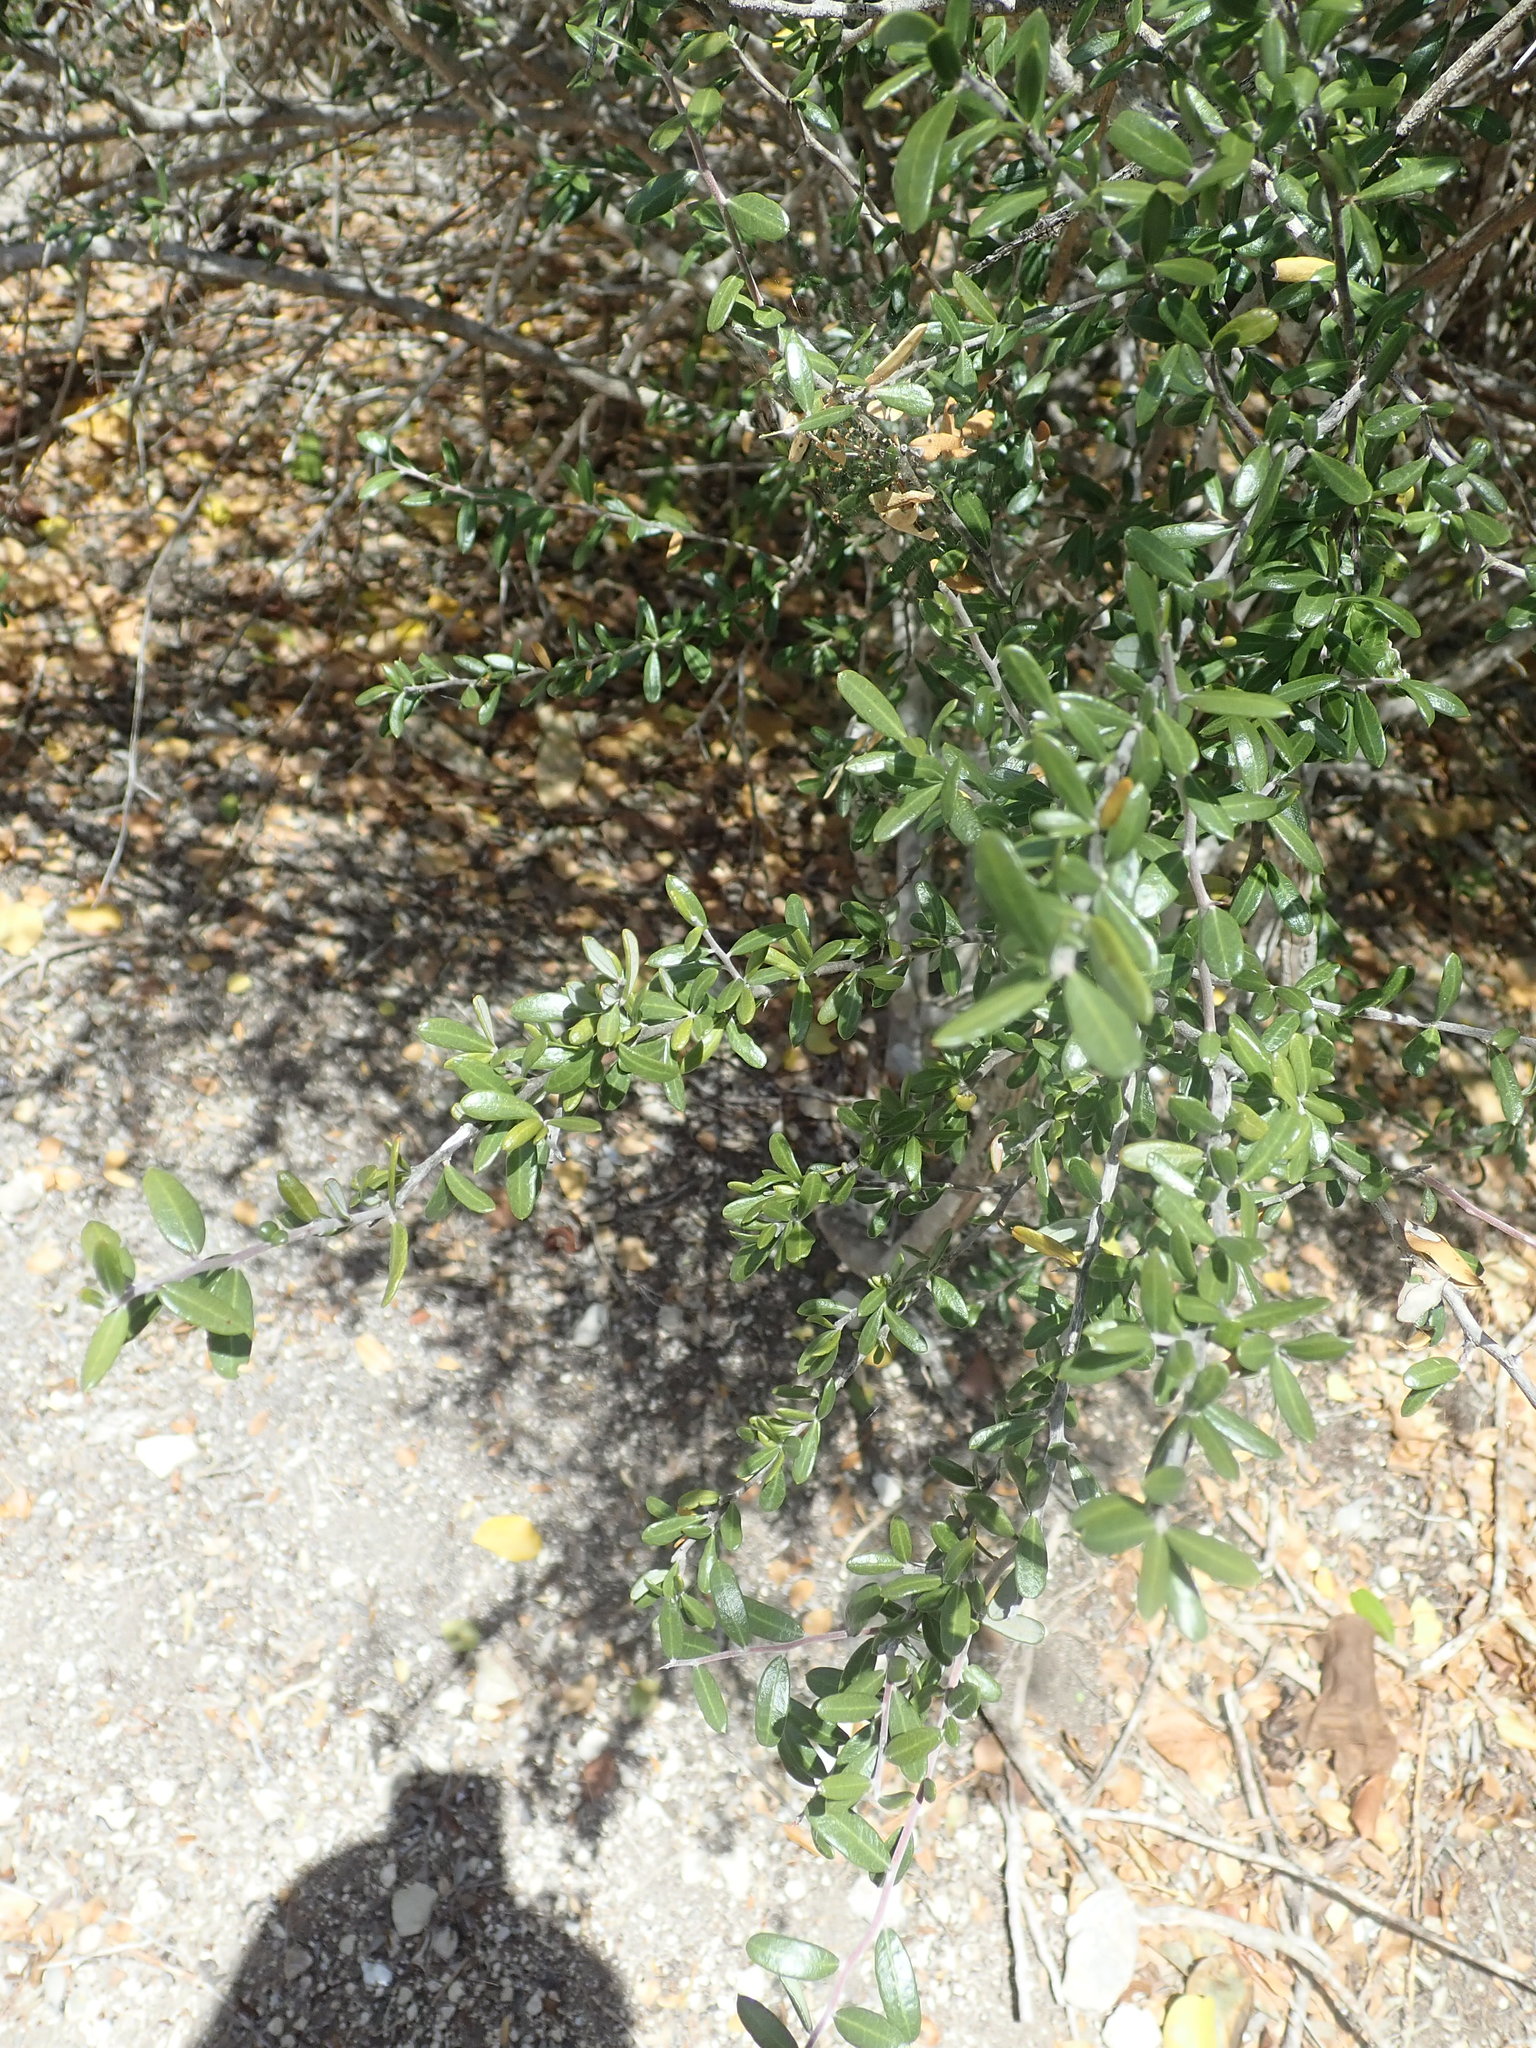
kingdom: Plantae
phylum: Tracheophyta
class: Magnoliopsida
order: Sapindales
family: Simaroubaceae
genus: Castela
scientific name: Castela erecta
